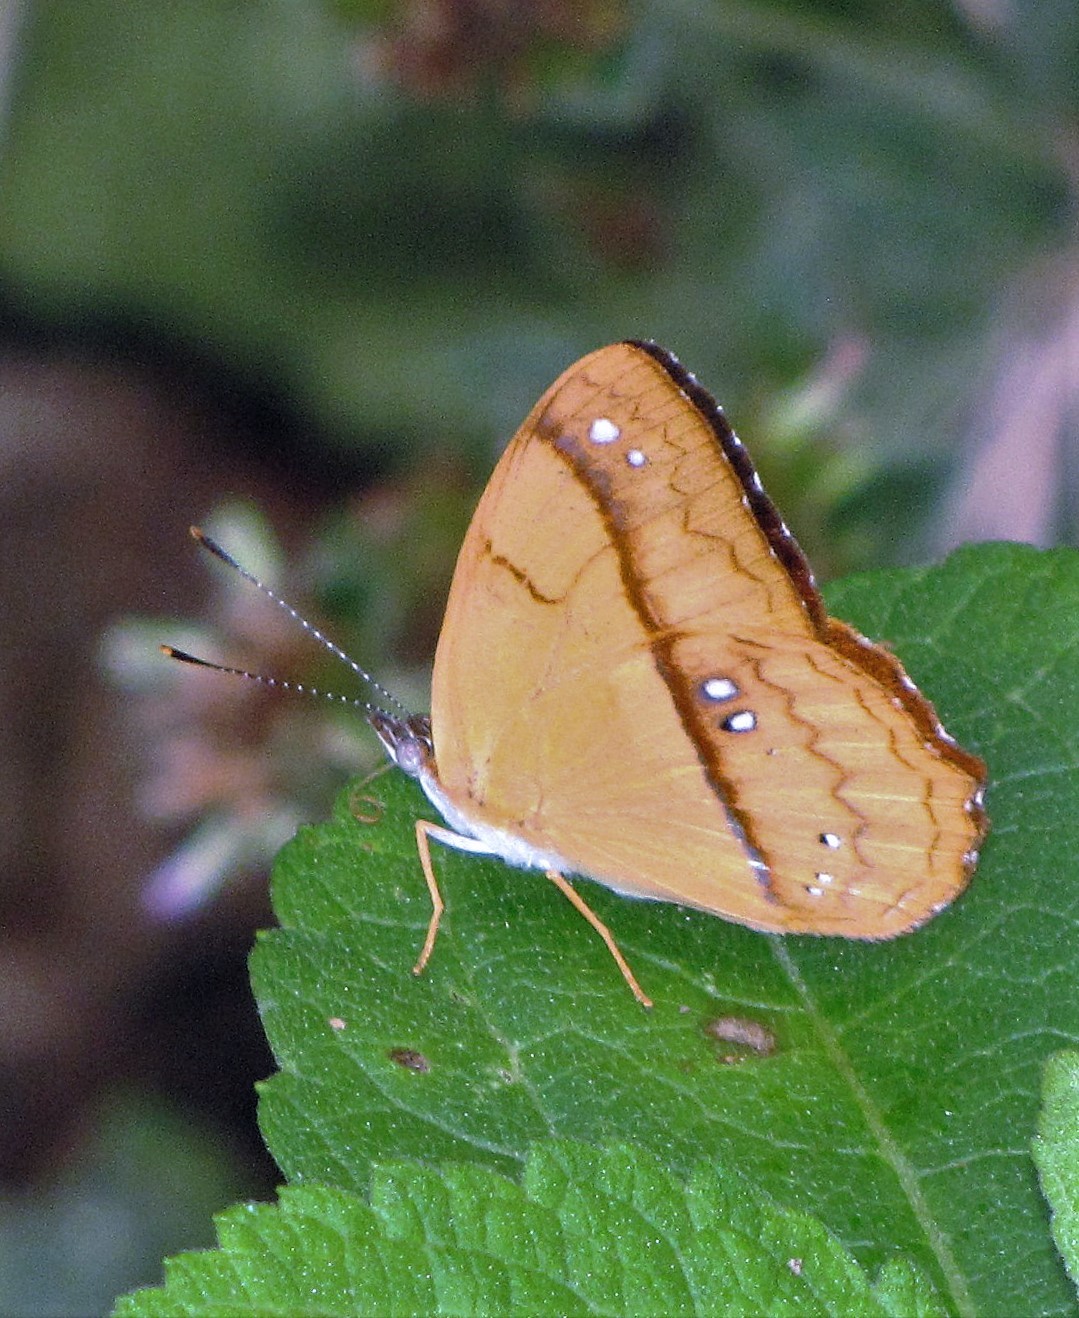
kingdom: Animalia
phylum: Arthropoda
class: Insecta
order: Lepidoptera
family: Nymphalidae
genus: Nica
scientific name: Nica flavilla
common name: Mandarin nica
